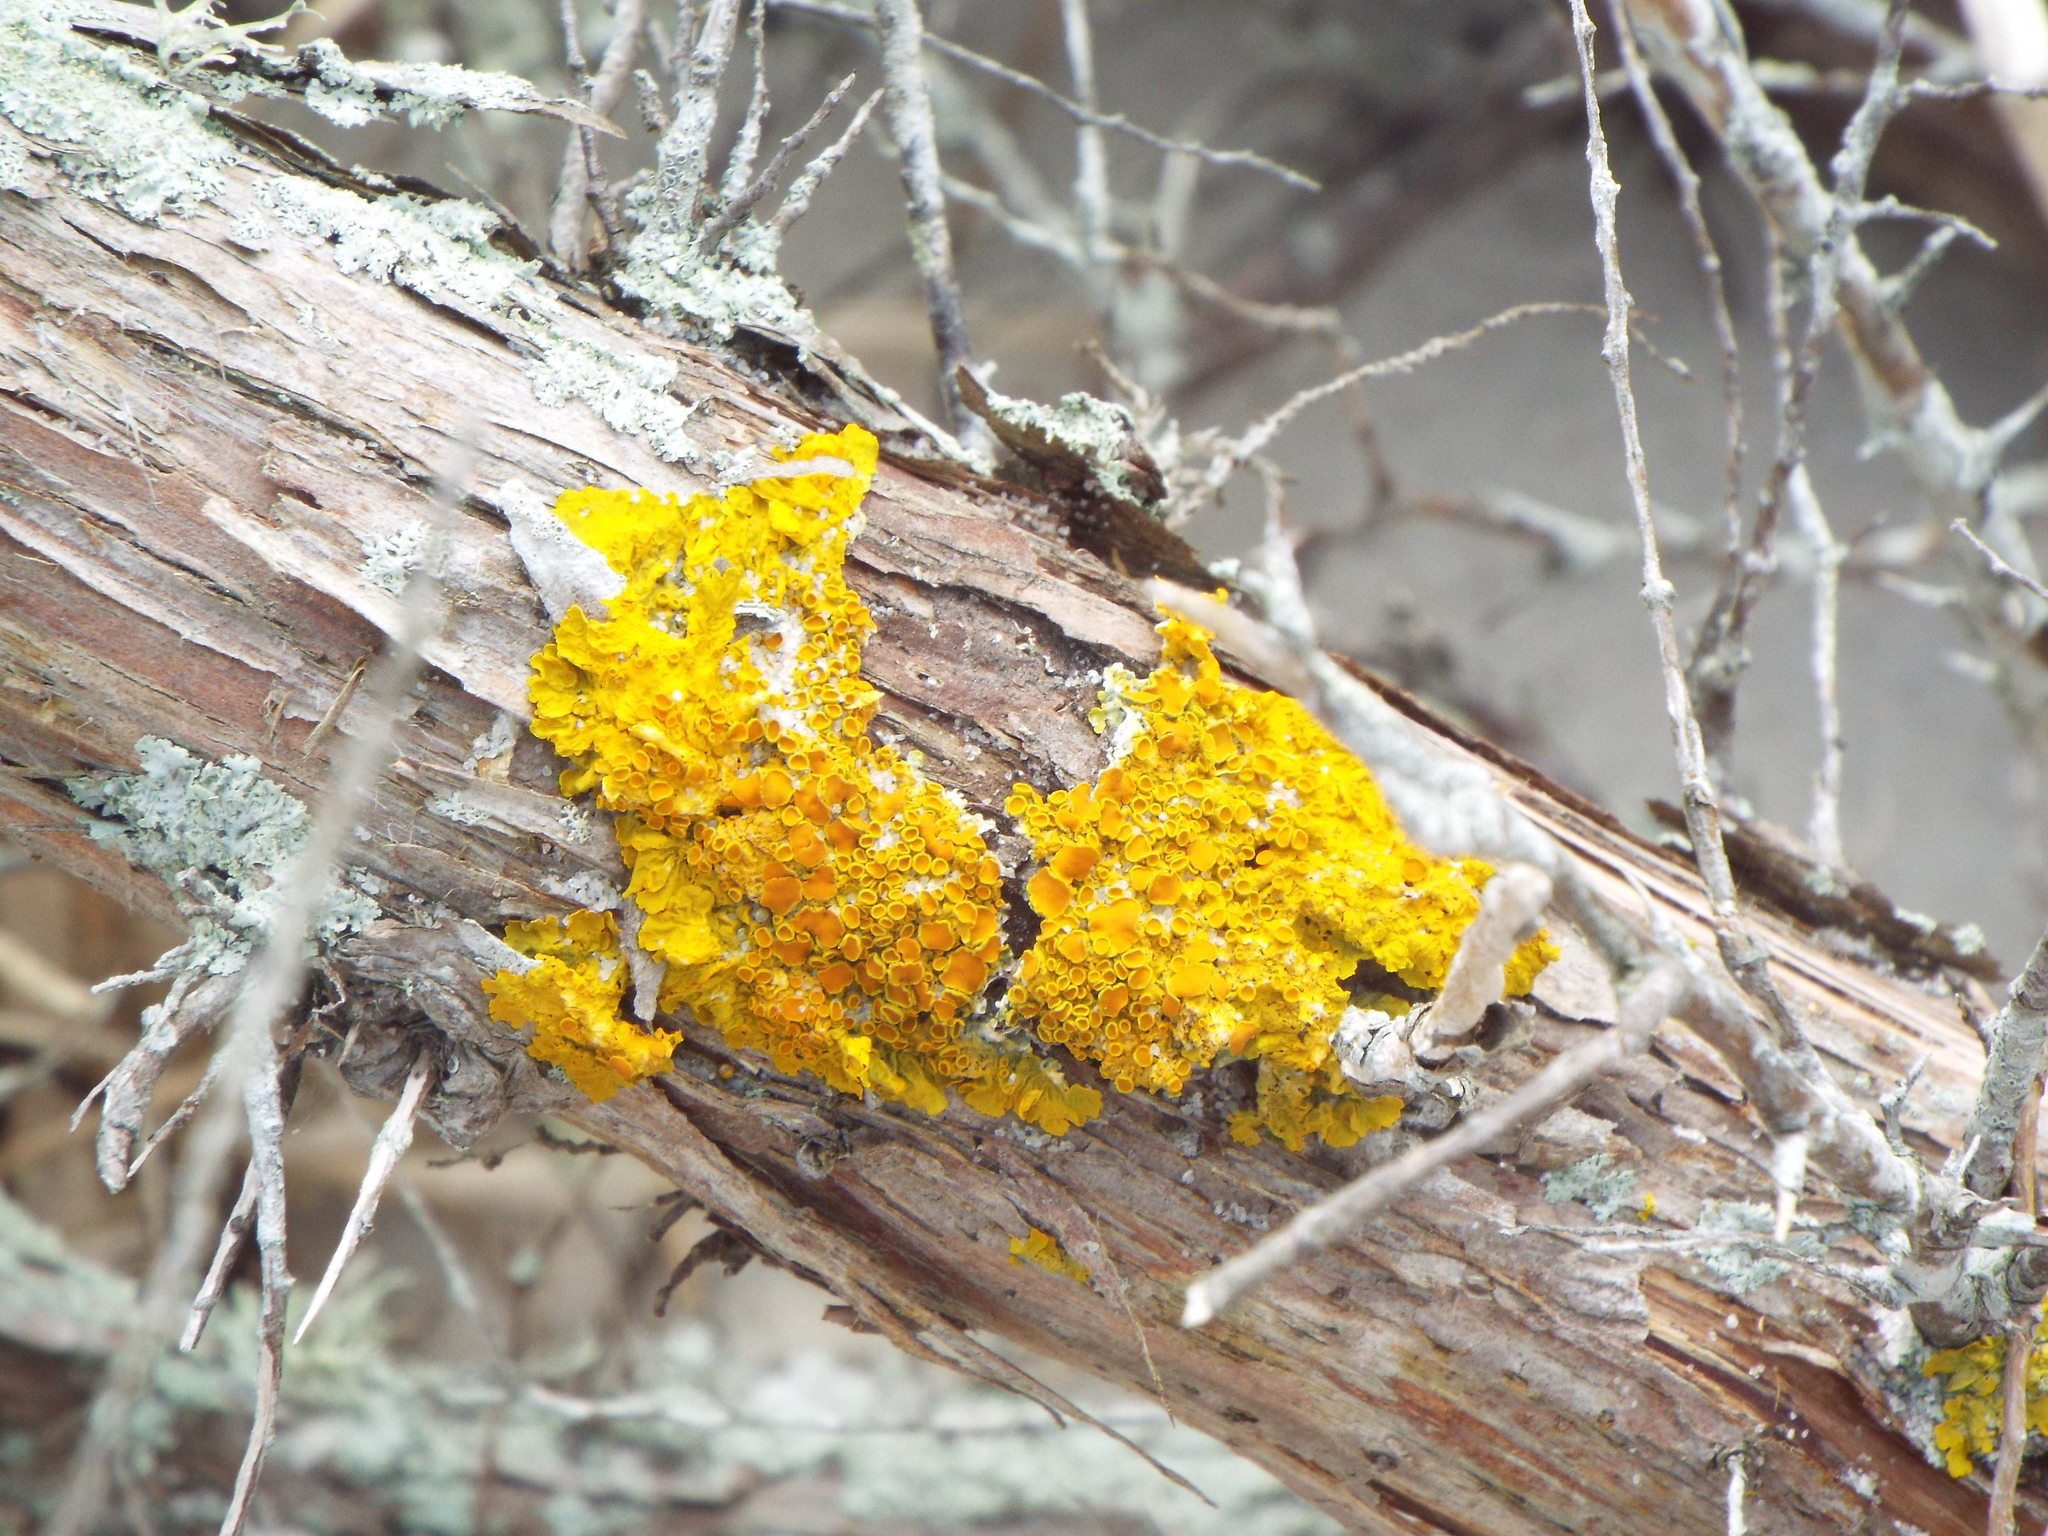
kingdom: Fungi
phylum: Ascomycota
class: Lecanoromycetes
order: Teloschistales
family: Teloschistaceae
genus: Xanthoria
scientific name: Xanthoria parietina
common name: Common orange lichen
